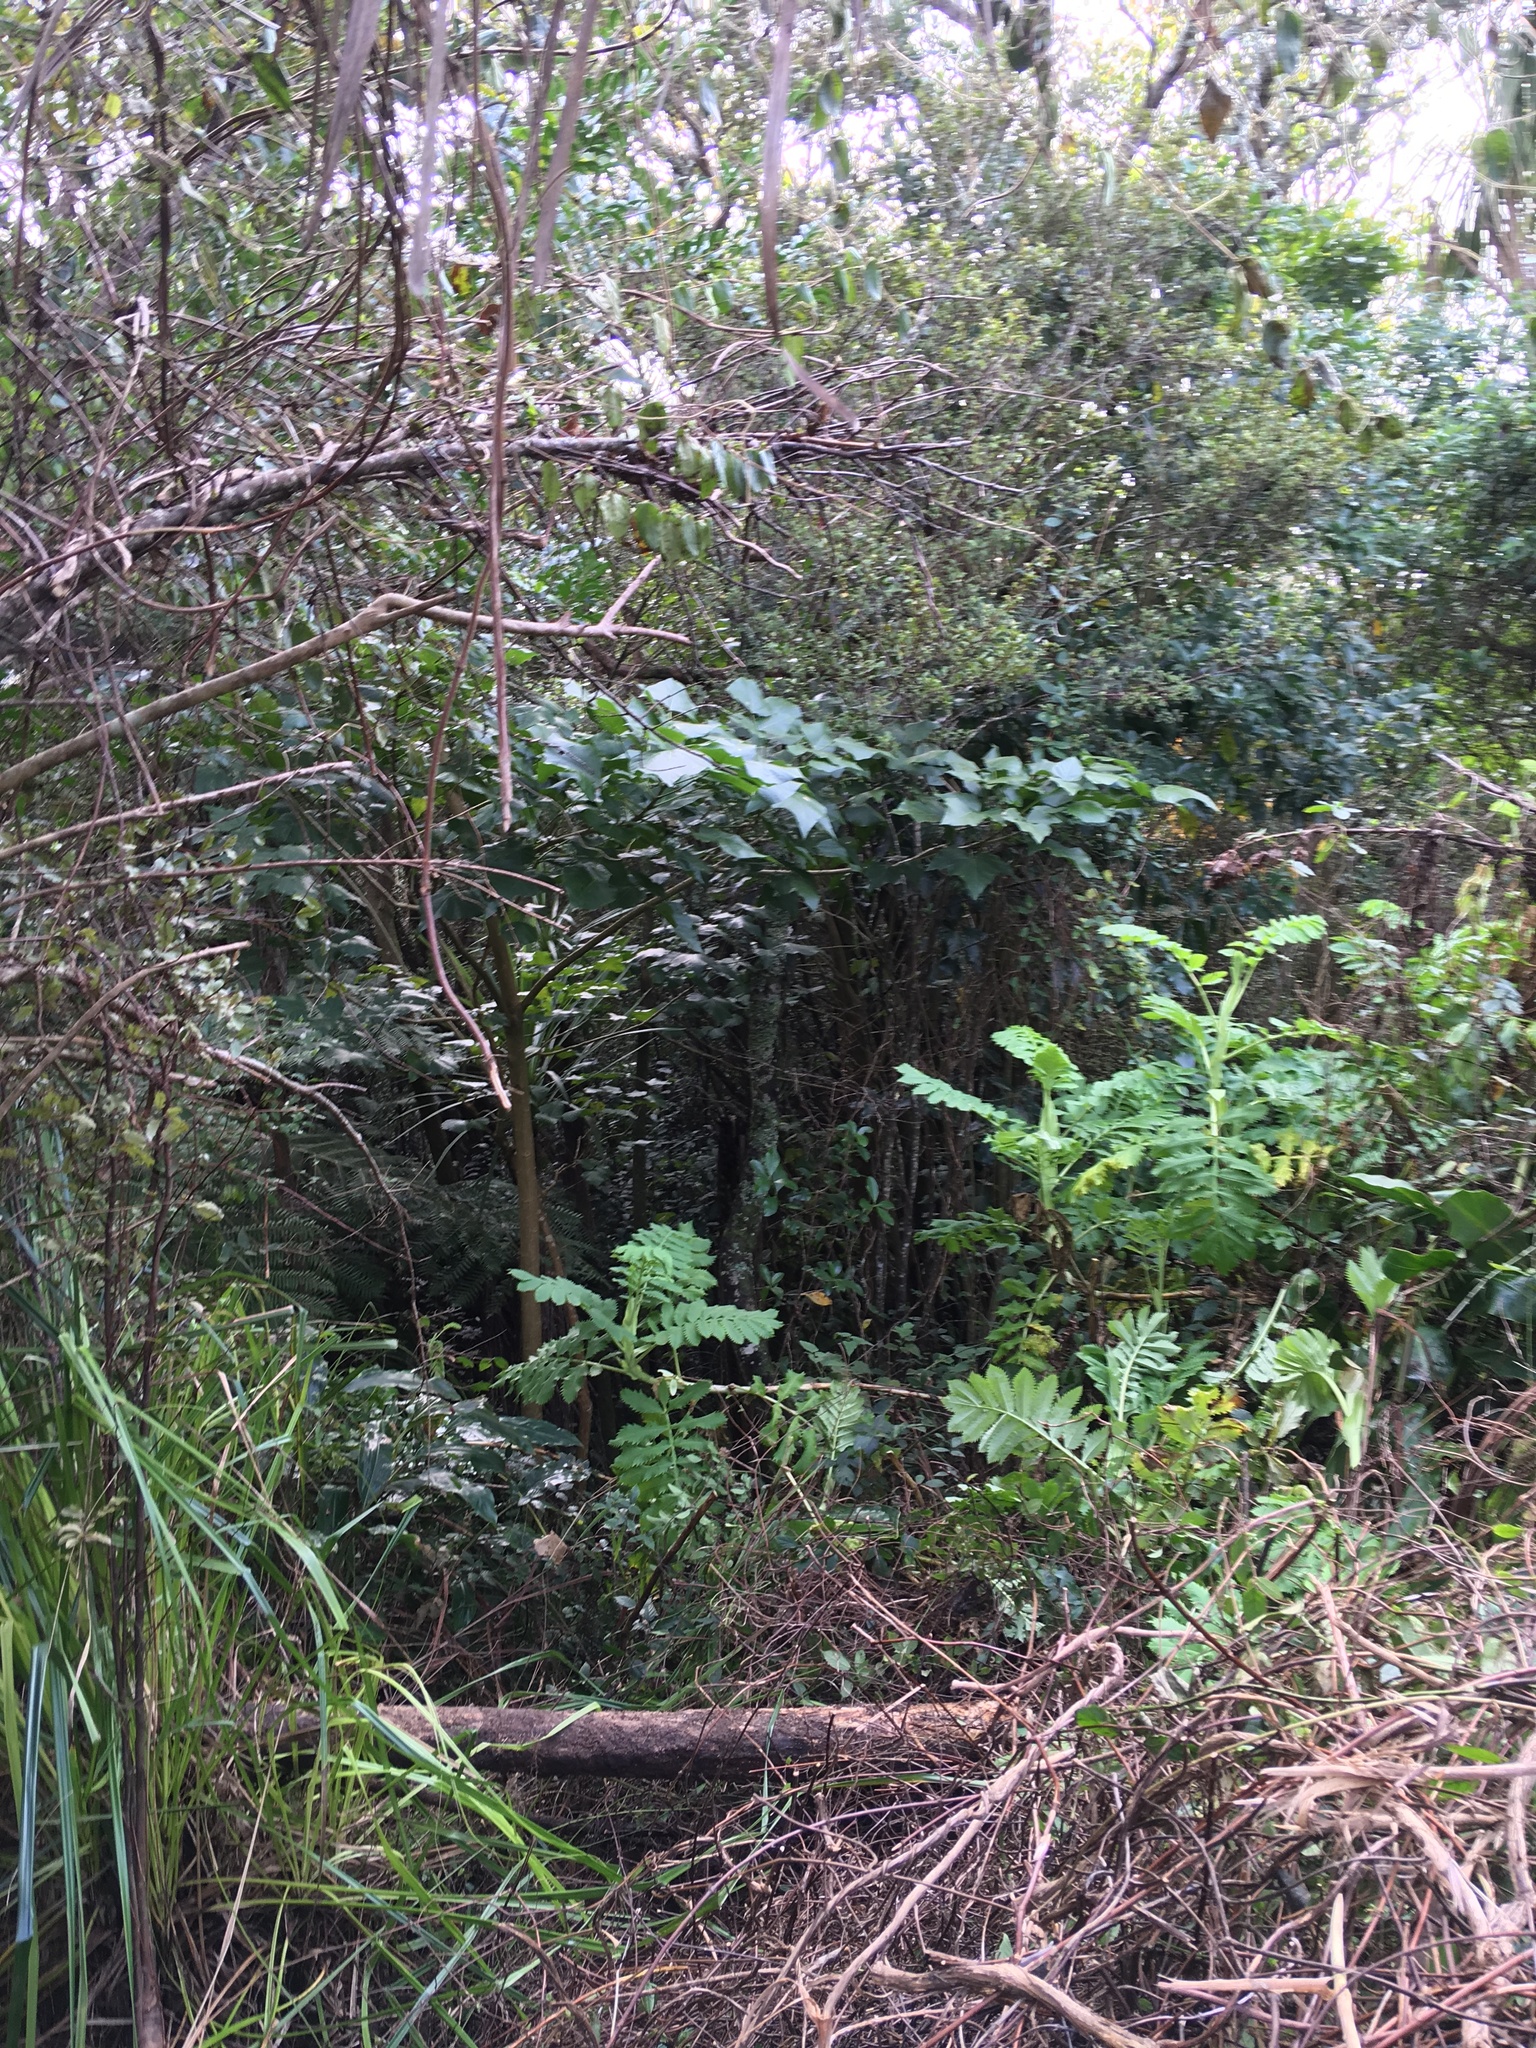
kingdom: Plantae
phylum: Tracheophyta
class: Magnoliopsida
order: Geraniales
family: Melianthaceae
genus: Melianthus
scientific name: Melianthus major
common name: Honey-flower
